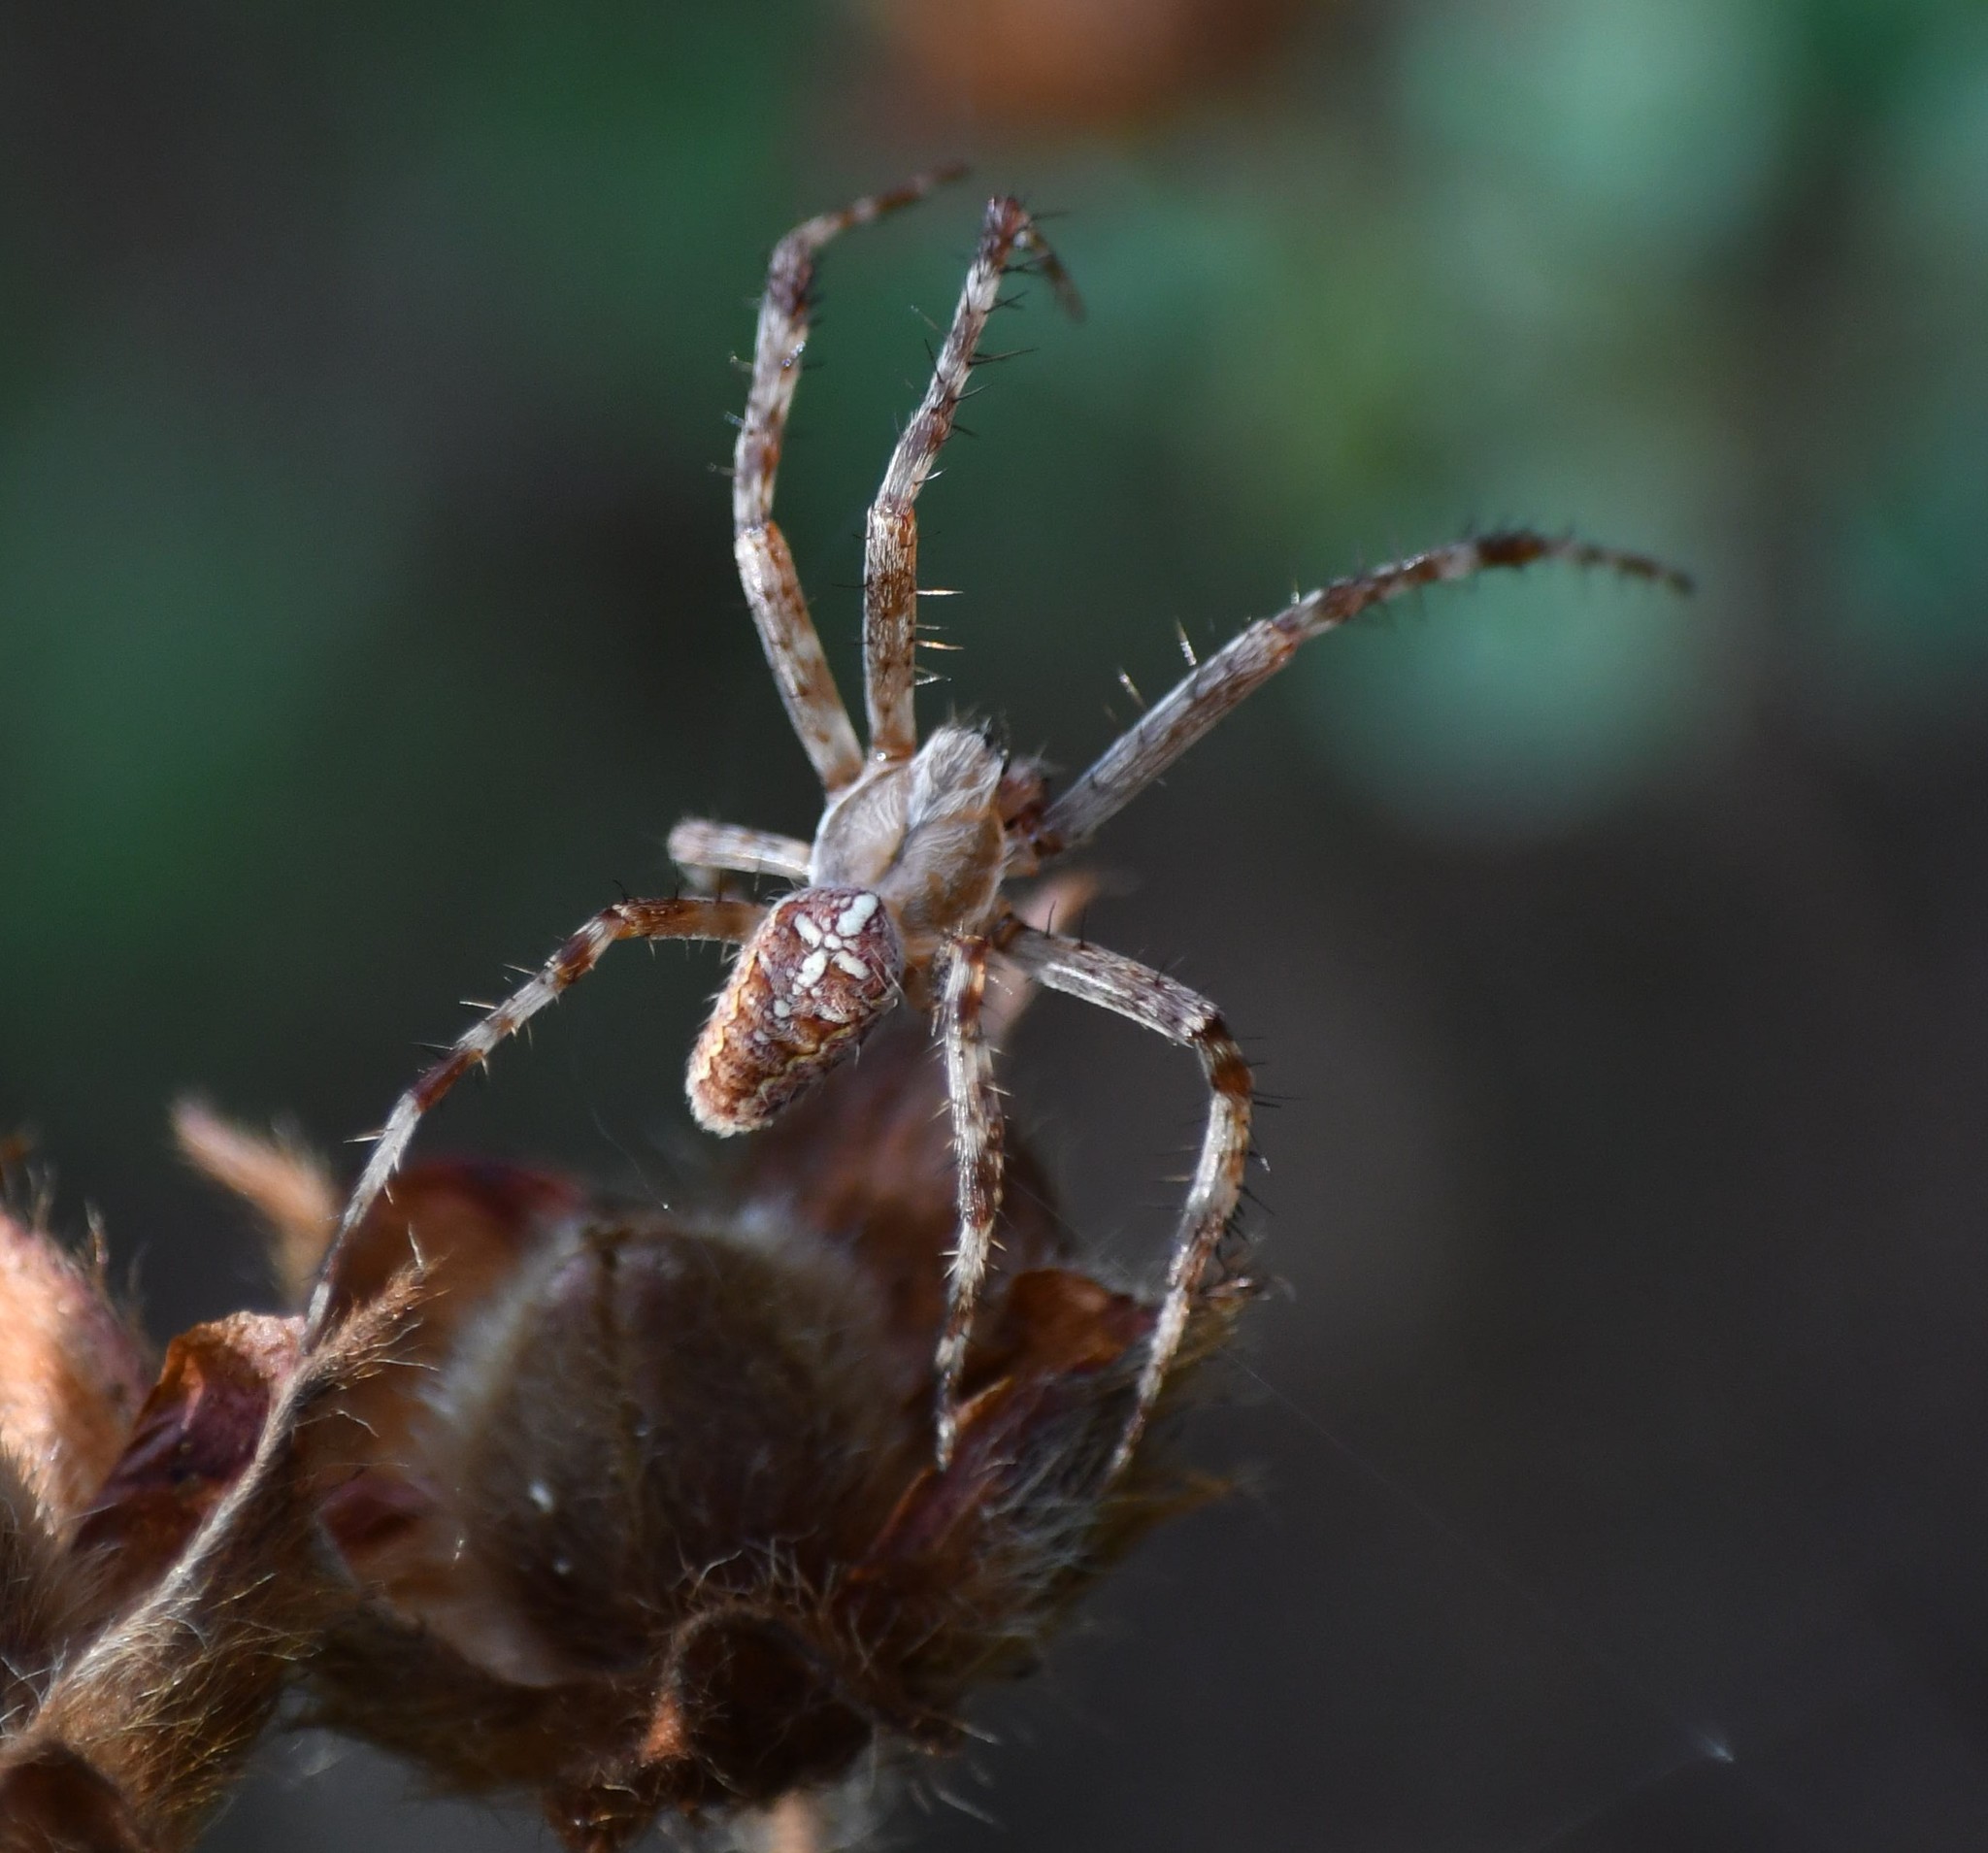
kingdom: Animalia
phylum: Arthropoda
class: Arachnida
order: Araneae
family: Araneidae
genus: Araneus
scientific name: Araneus diadematus
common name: Cross orbweaver
